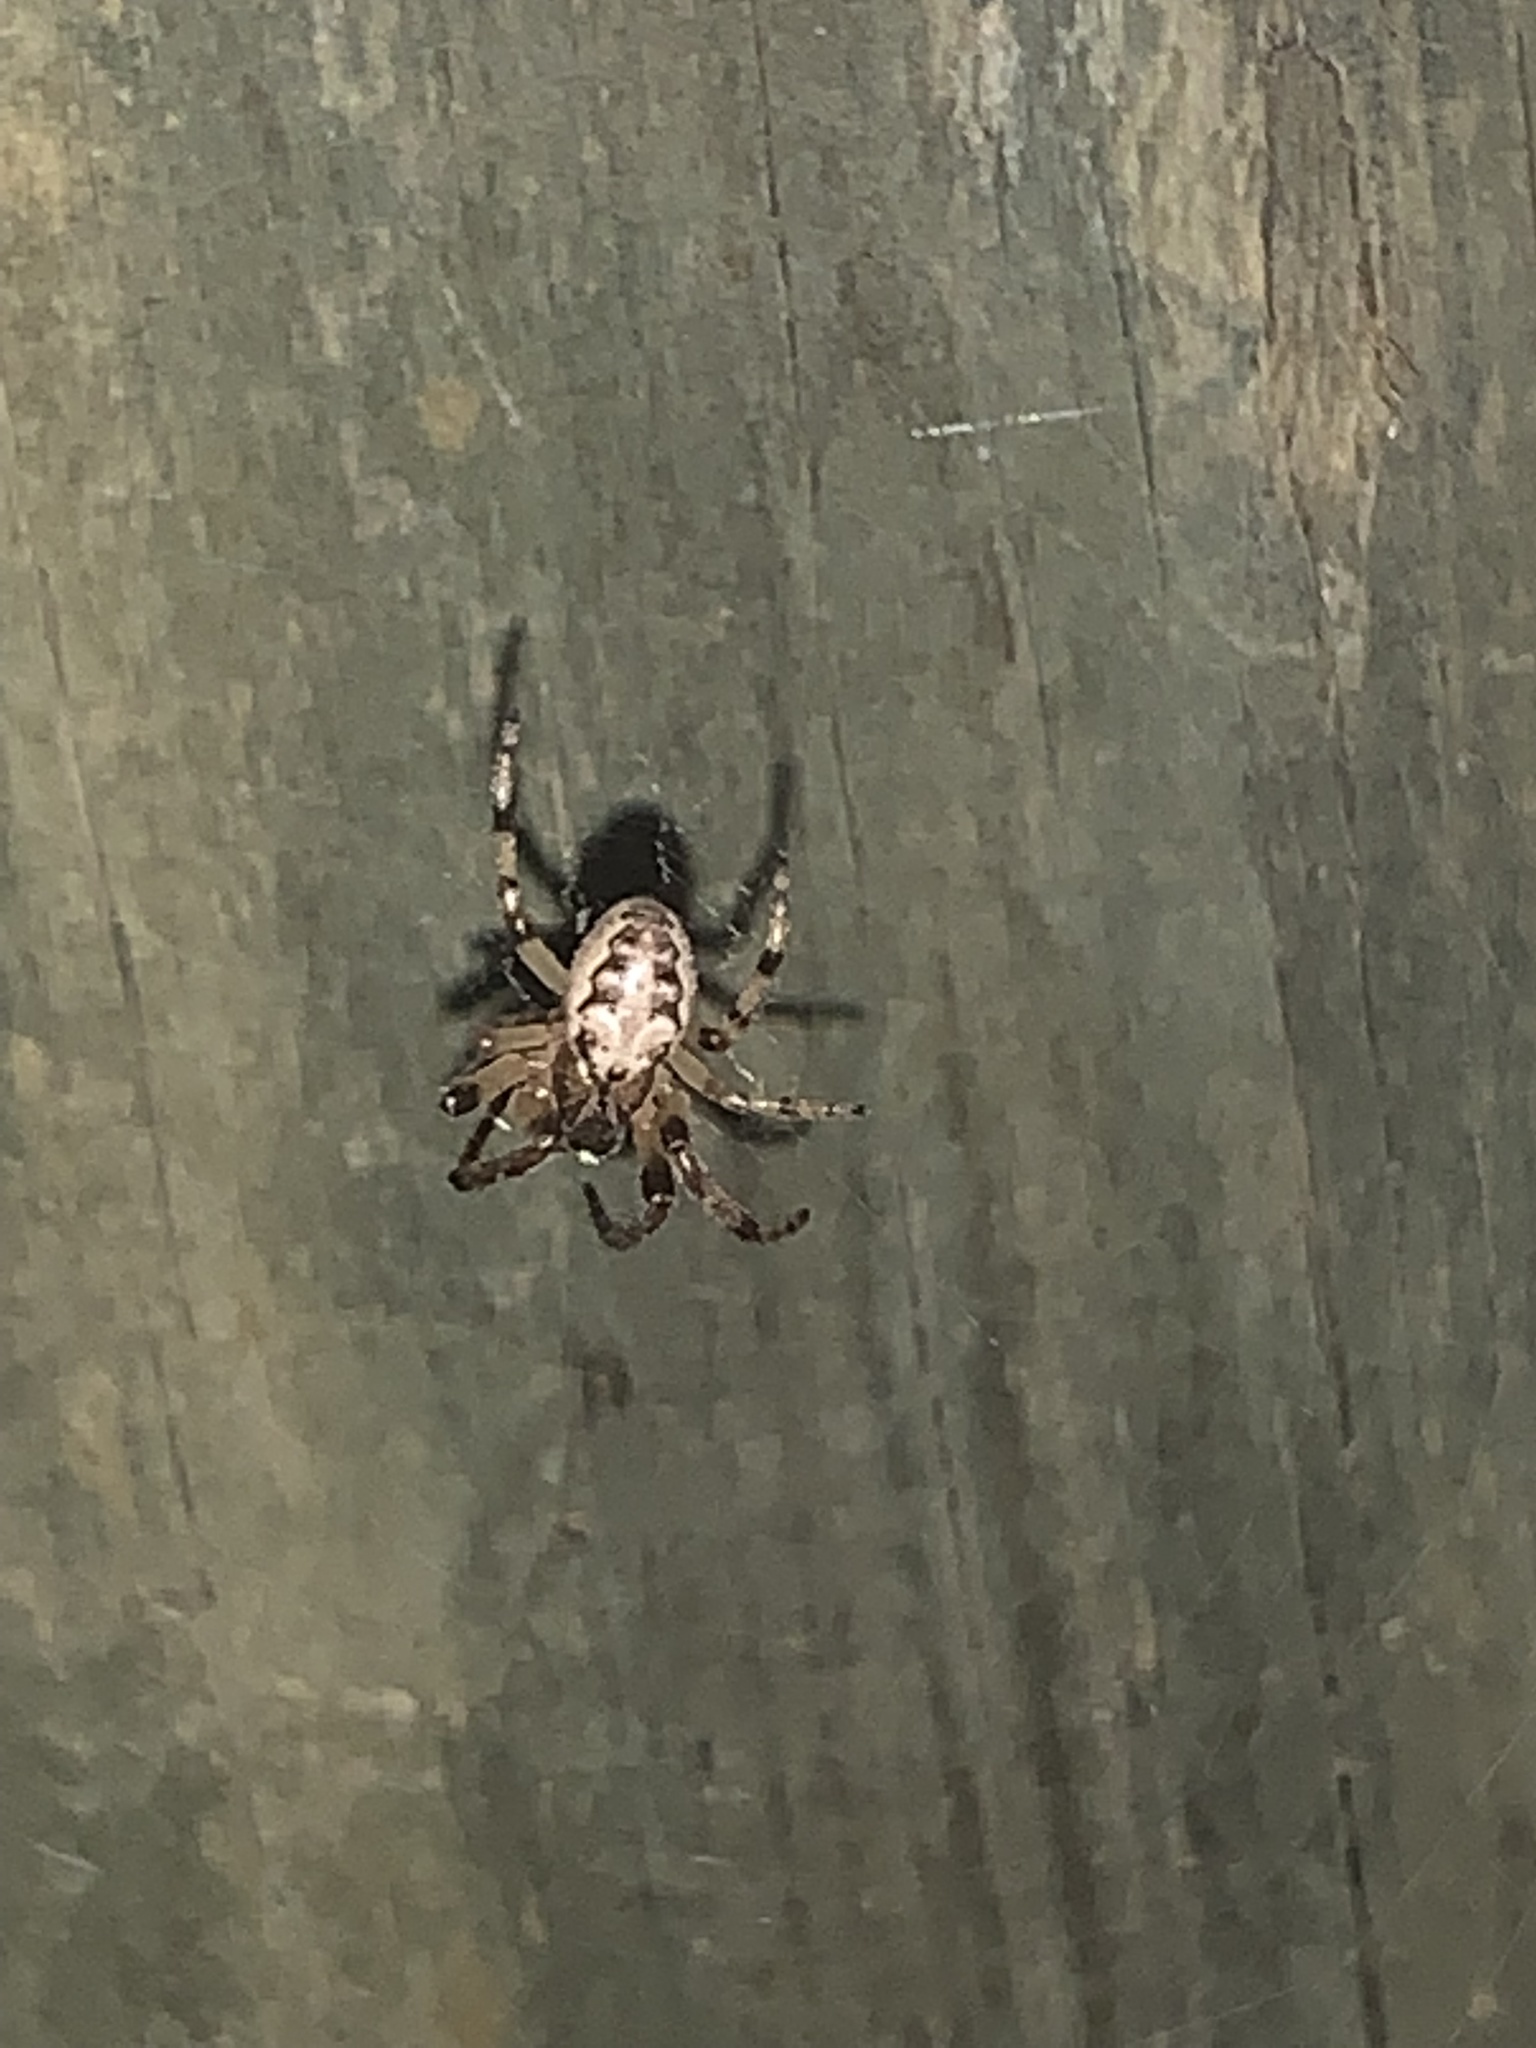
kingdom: Animalia
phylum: Arthropoda
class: Arachnida
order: Araneae
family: Araneidae
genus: Larinioides
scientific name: Larinioides cornutus
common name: Furrow orbweaver
